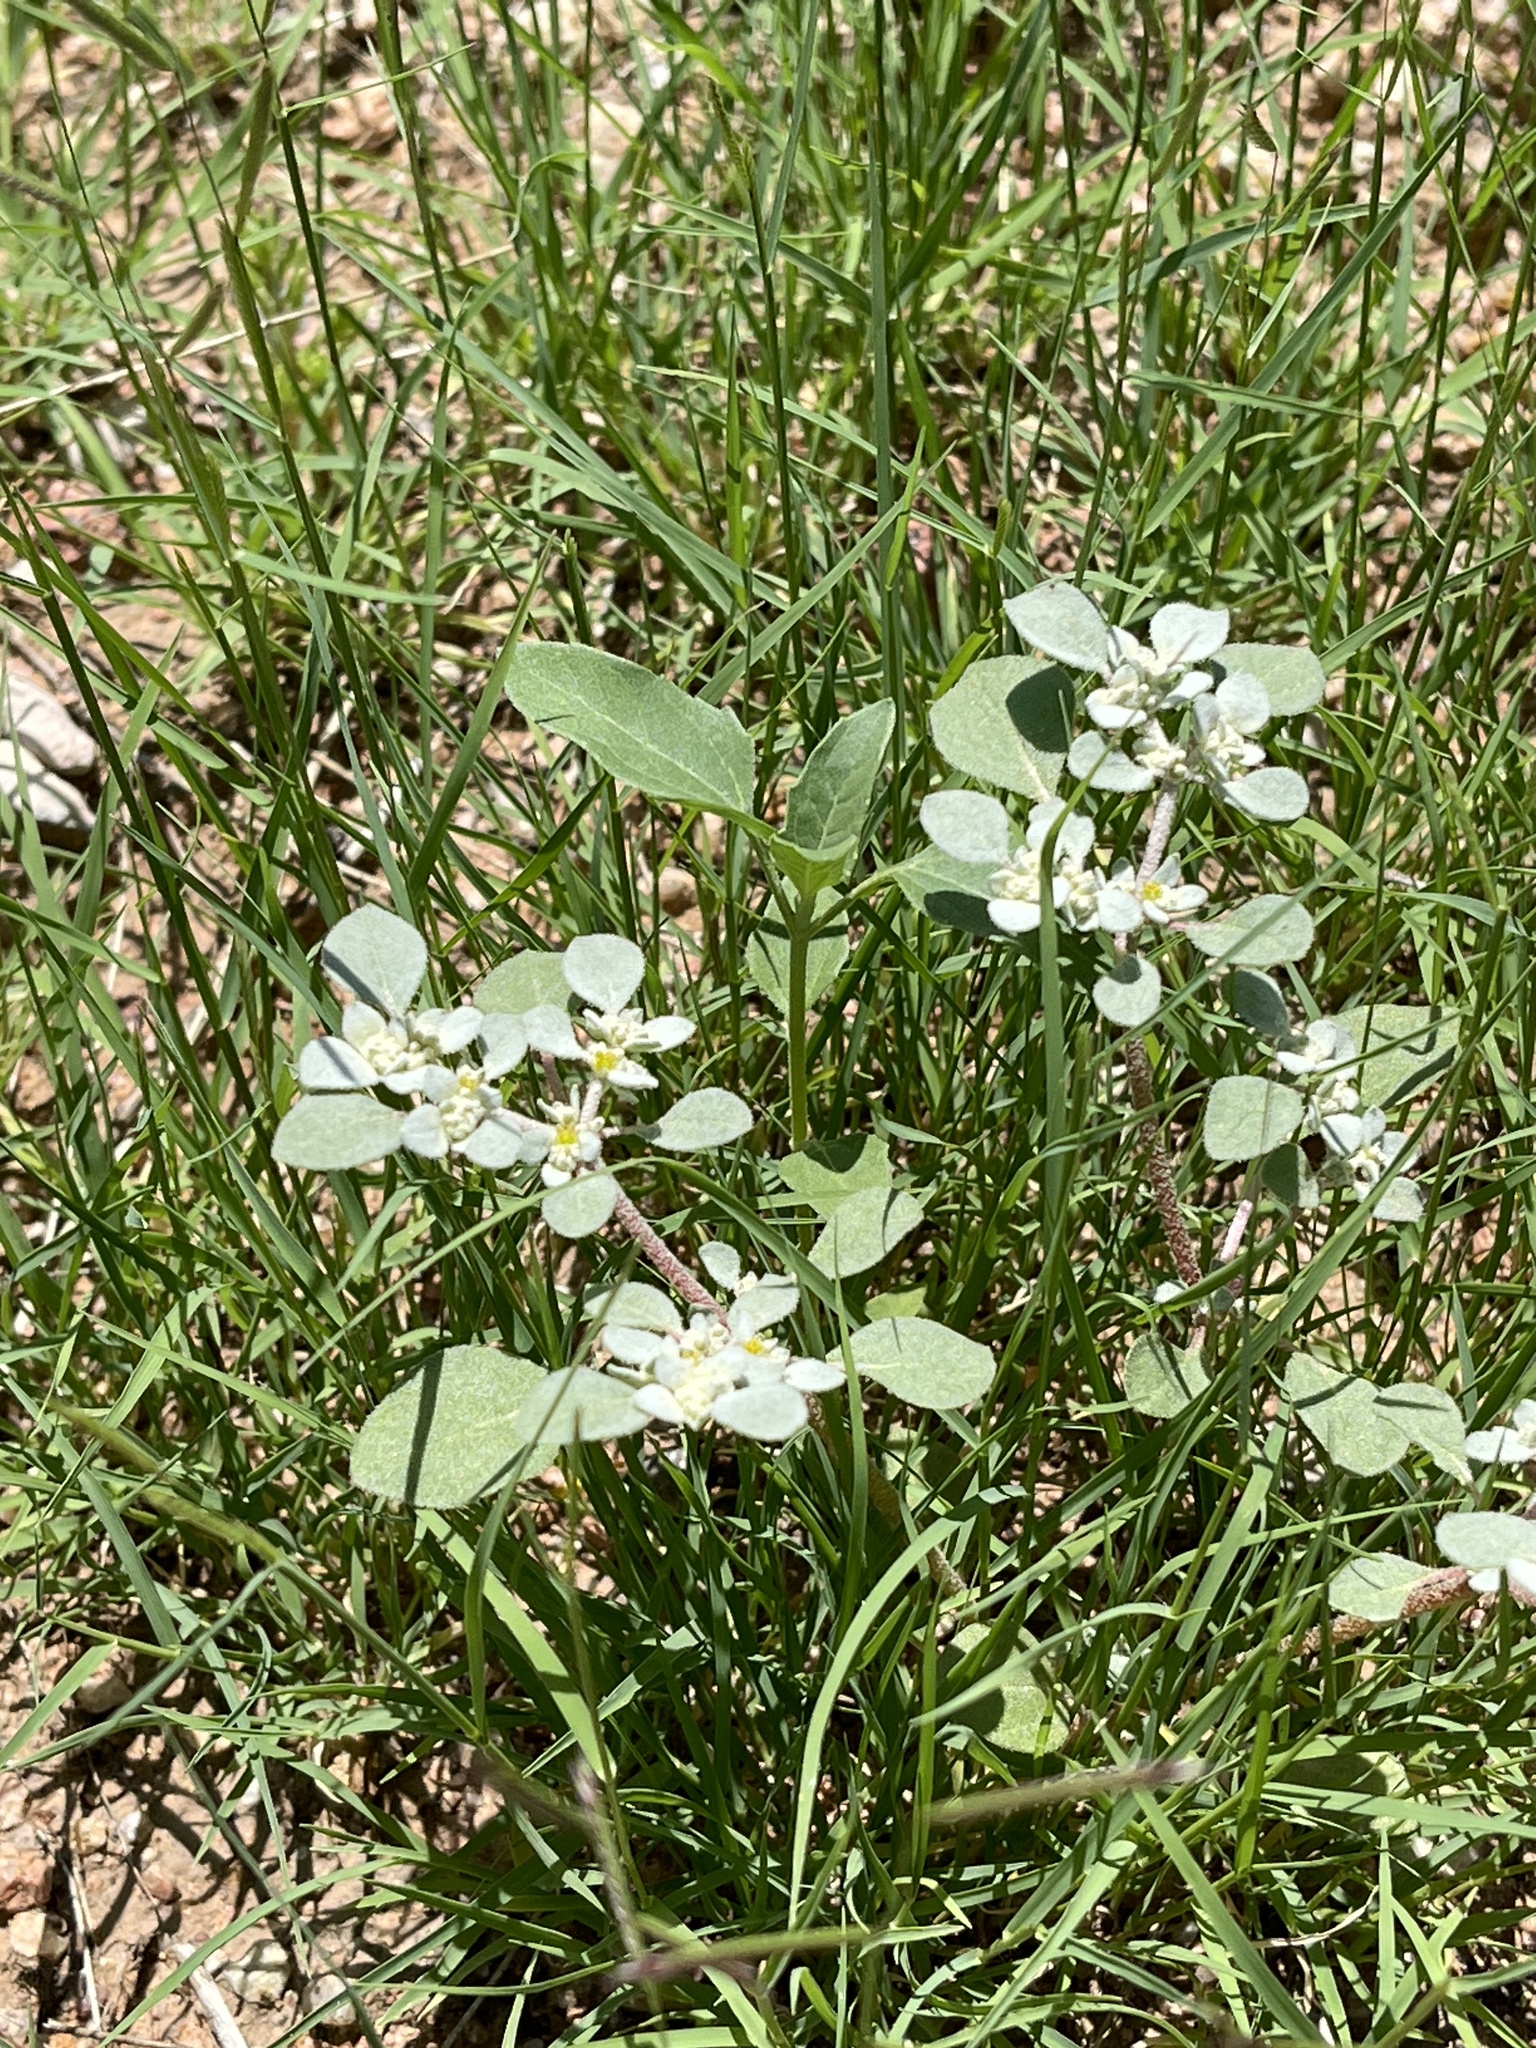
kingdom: Plantae
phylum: Tracheophyta
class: Magnoliopsida
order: Caryophyllales
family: Amaranthaceae
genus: Tidestromia
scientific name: Tidestromia lanuginosa
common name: Woolly tidestromia
